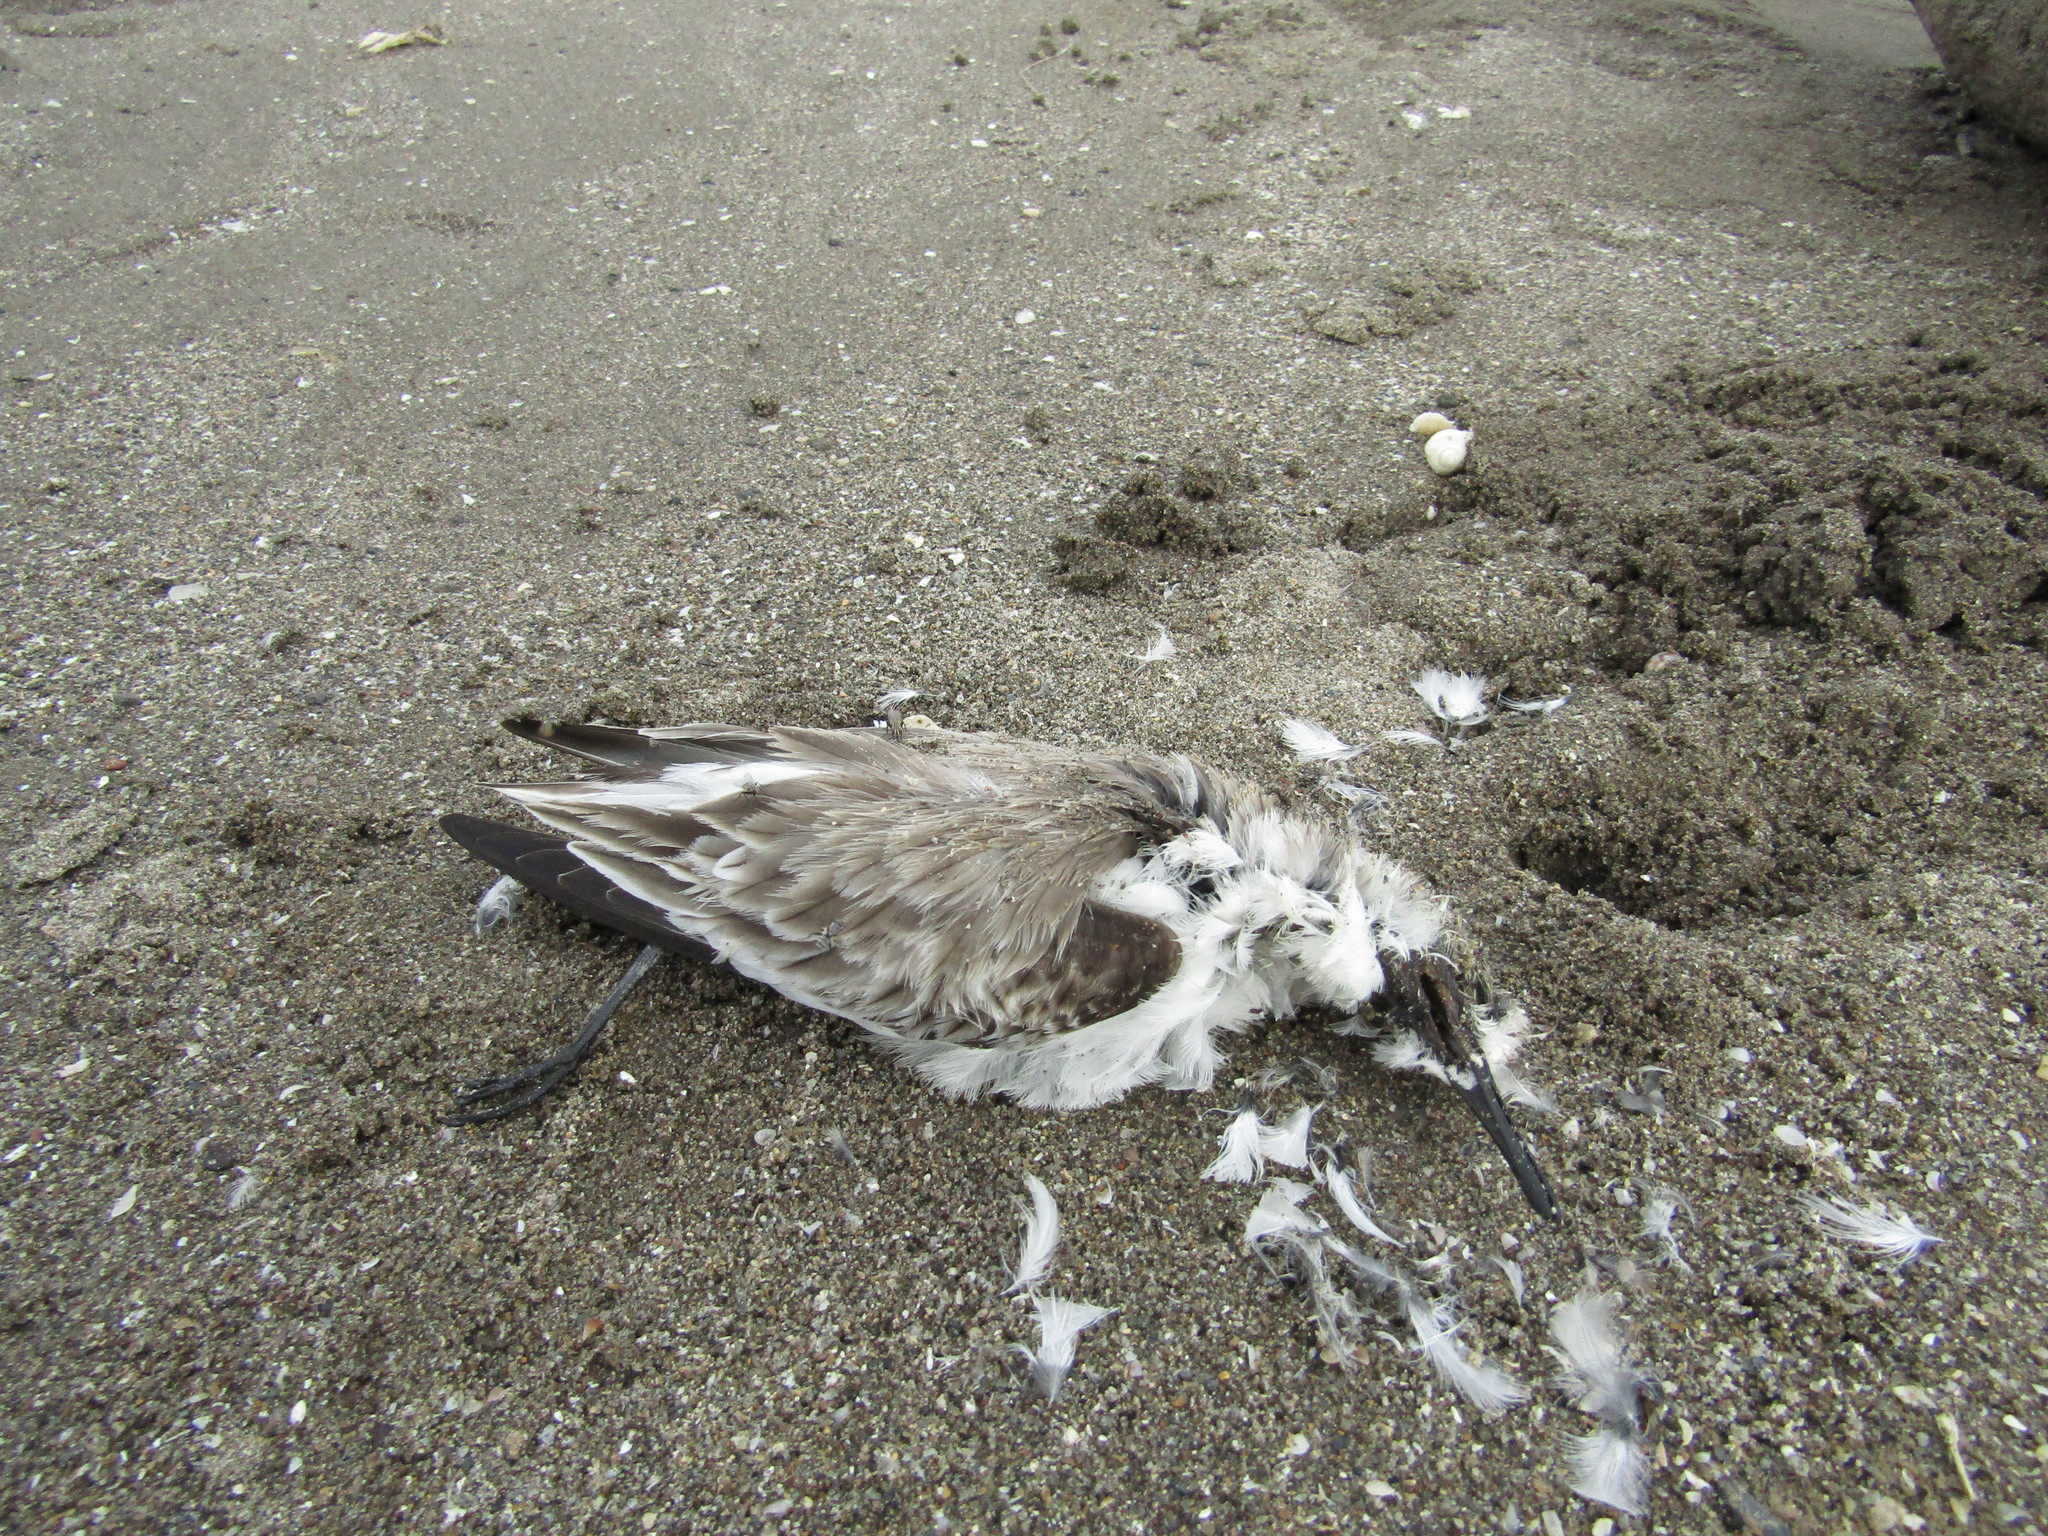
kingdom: Animalia
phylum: Chordata
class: Aves
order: Charadriiformes
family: Scolopacidae
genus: Calidris
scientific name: Calidris alba
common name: Sanderling
